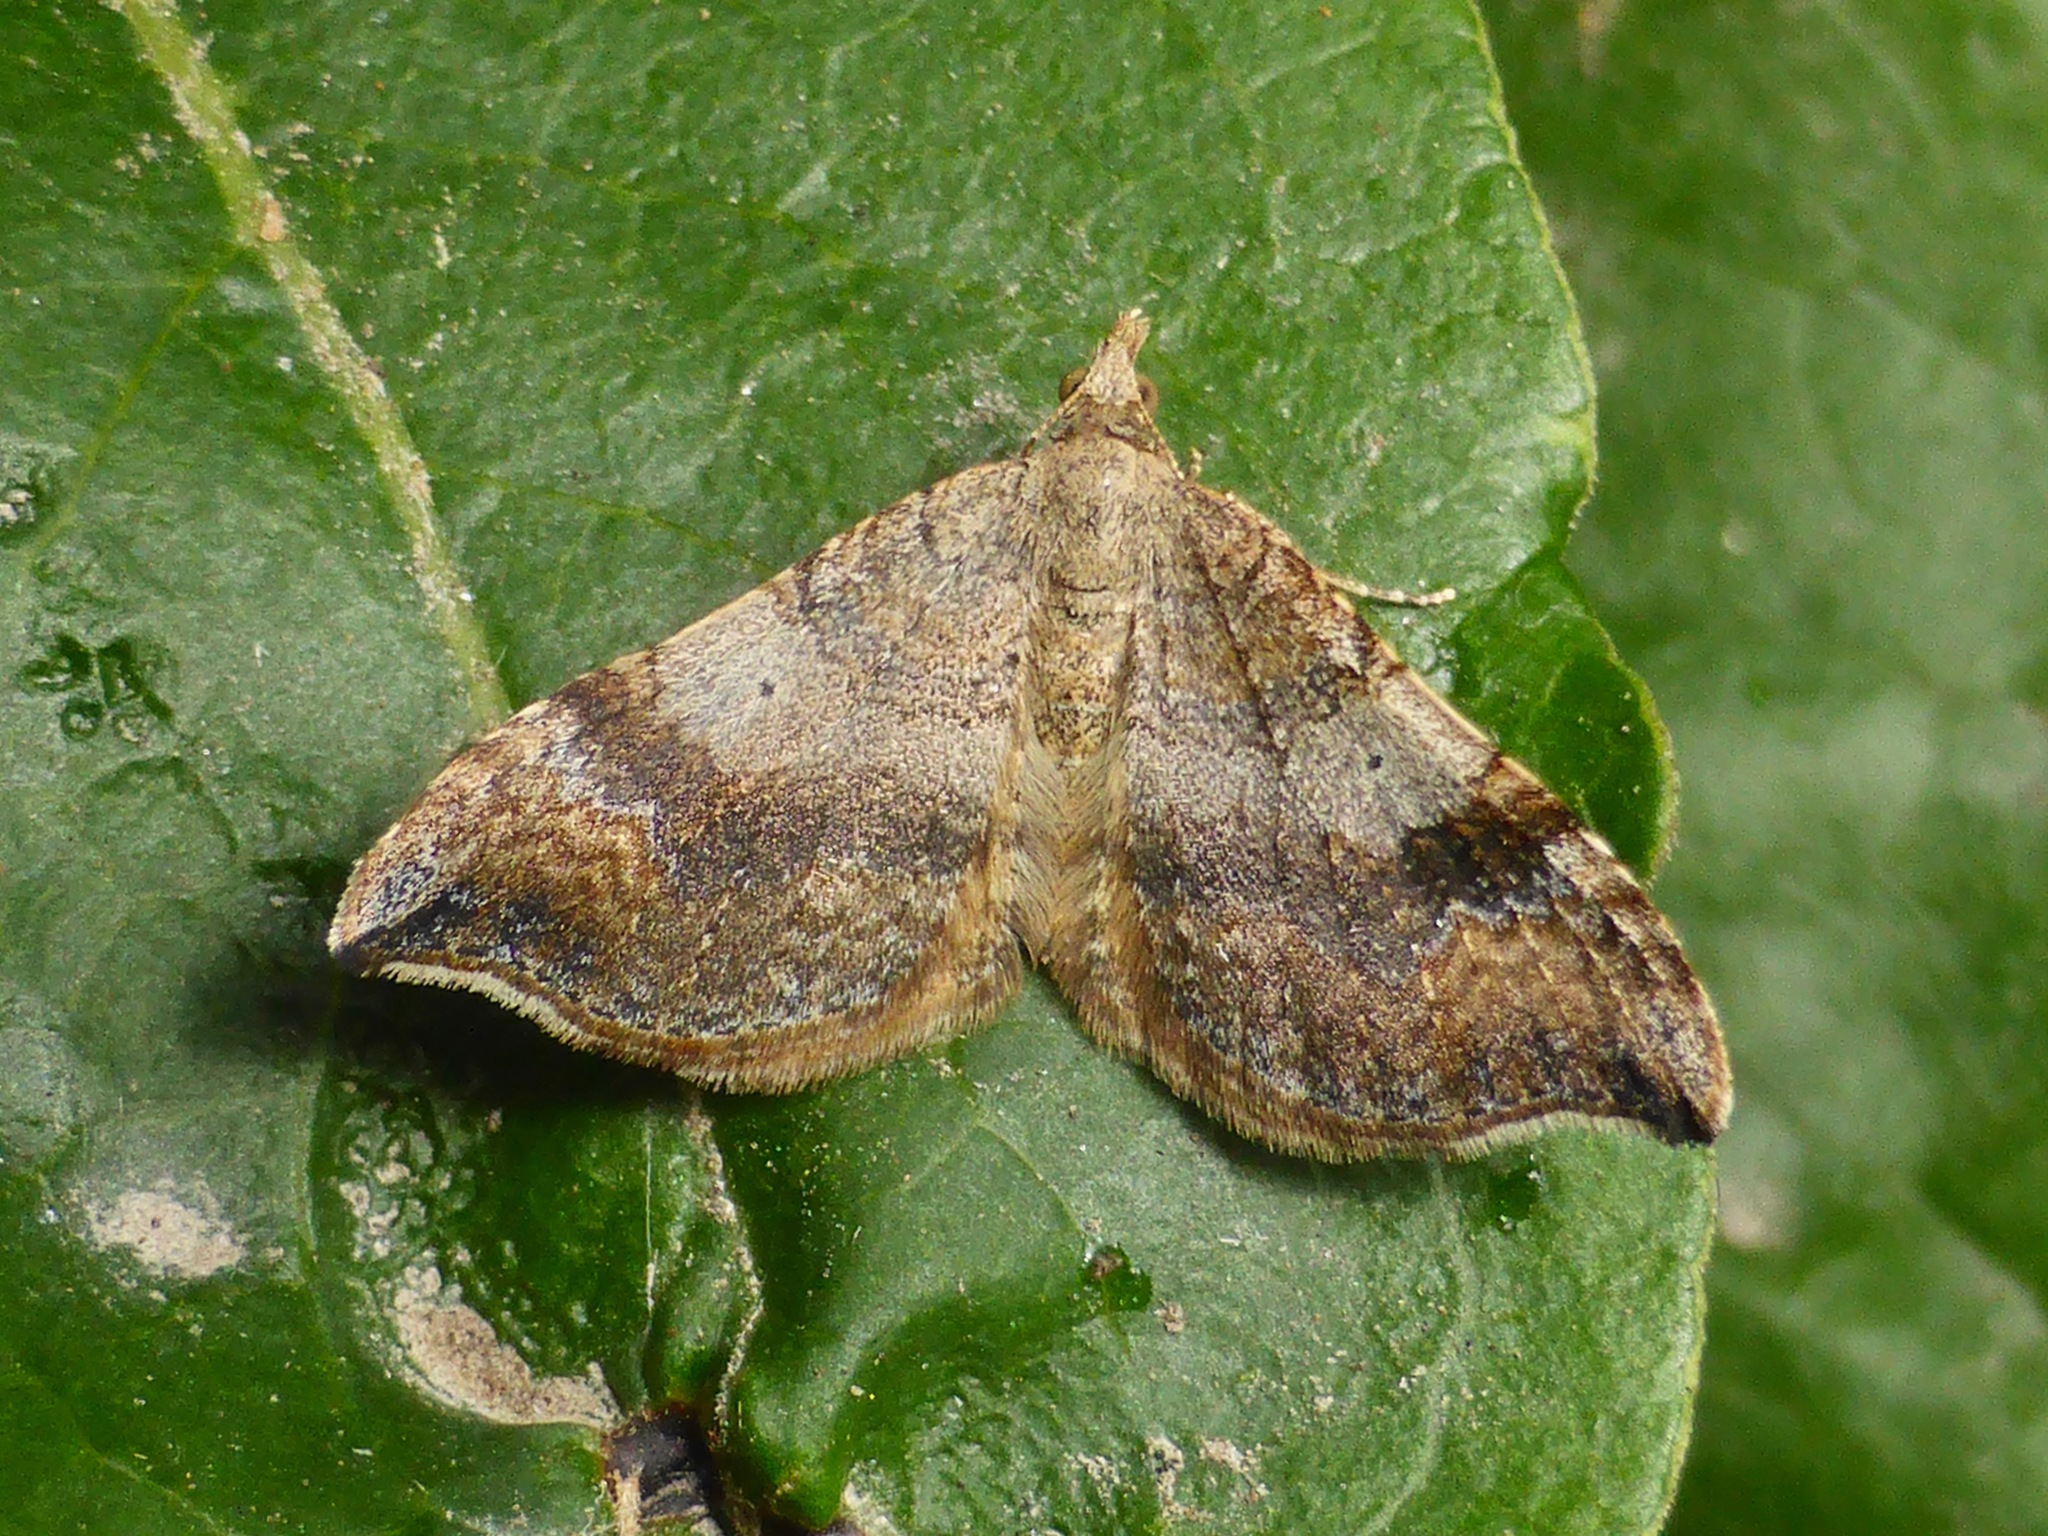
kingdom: Animalia
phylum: Arthropoda
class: Insecta
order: Lepidoptera
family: Geometridae
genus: Homodotis
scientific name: Homodotis megaspilata
